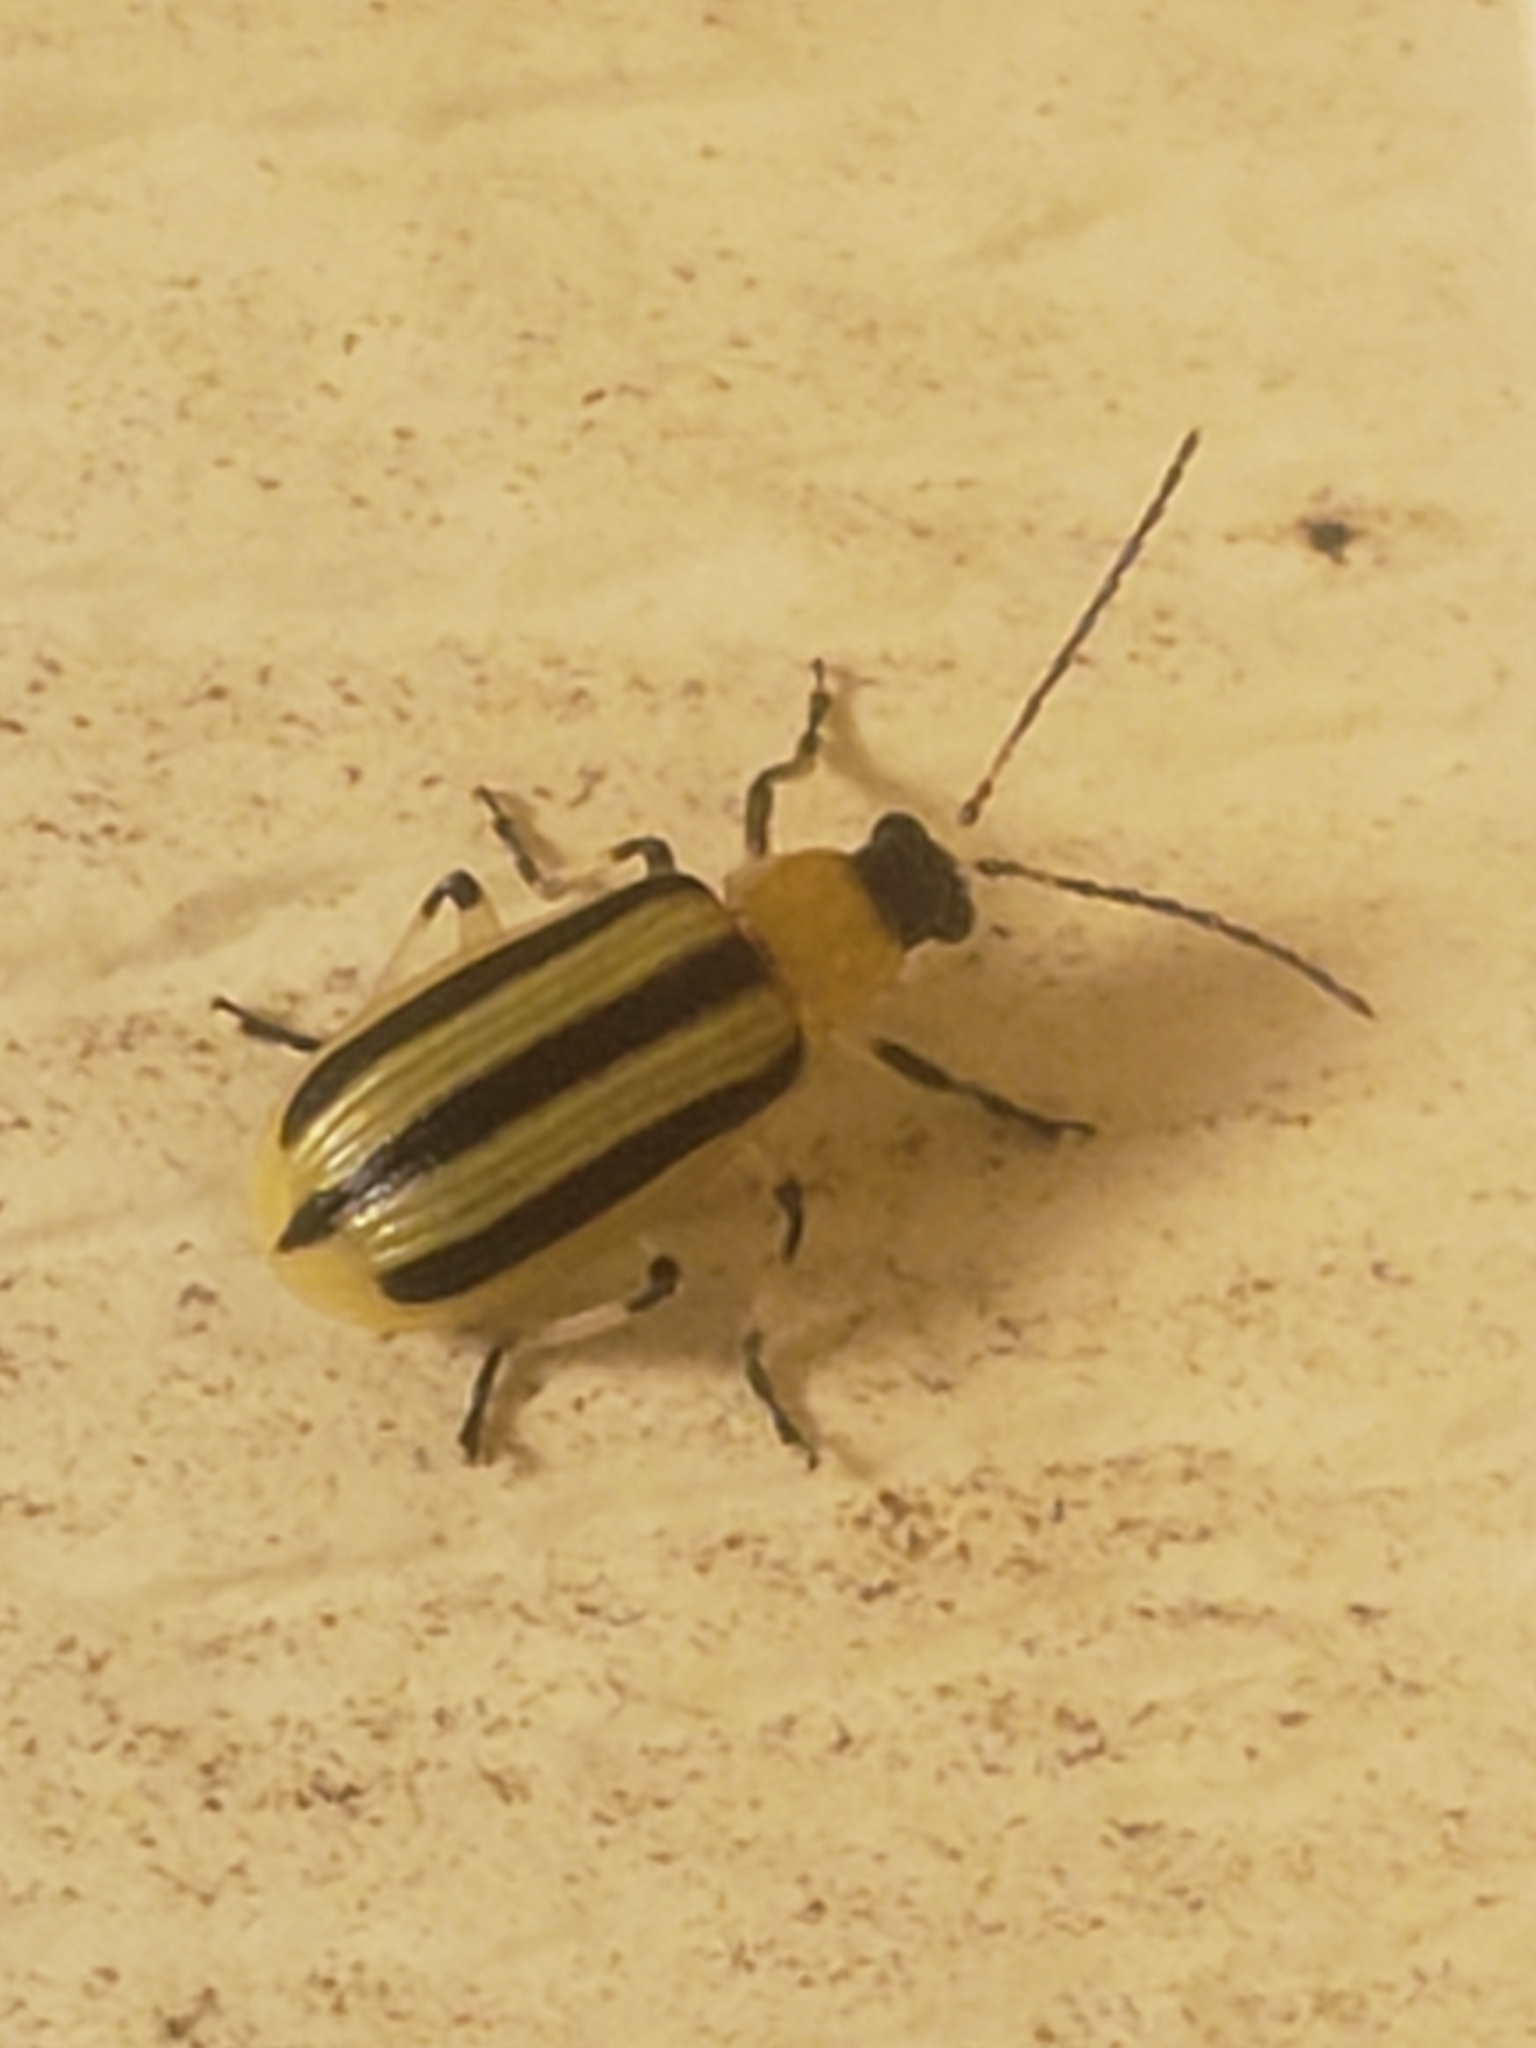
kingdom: Animalia
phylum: Arthropoda
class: Insecta
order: Coleoptera
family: Chrysomelidae
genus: Acalymma
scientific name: Acalymma vittatum
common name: Striped cucumber beetle
